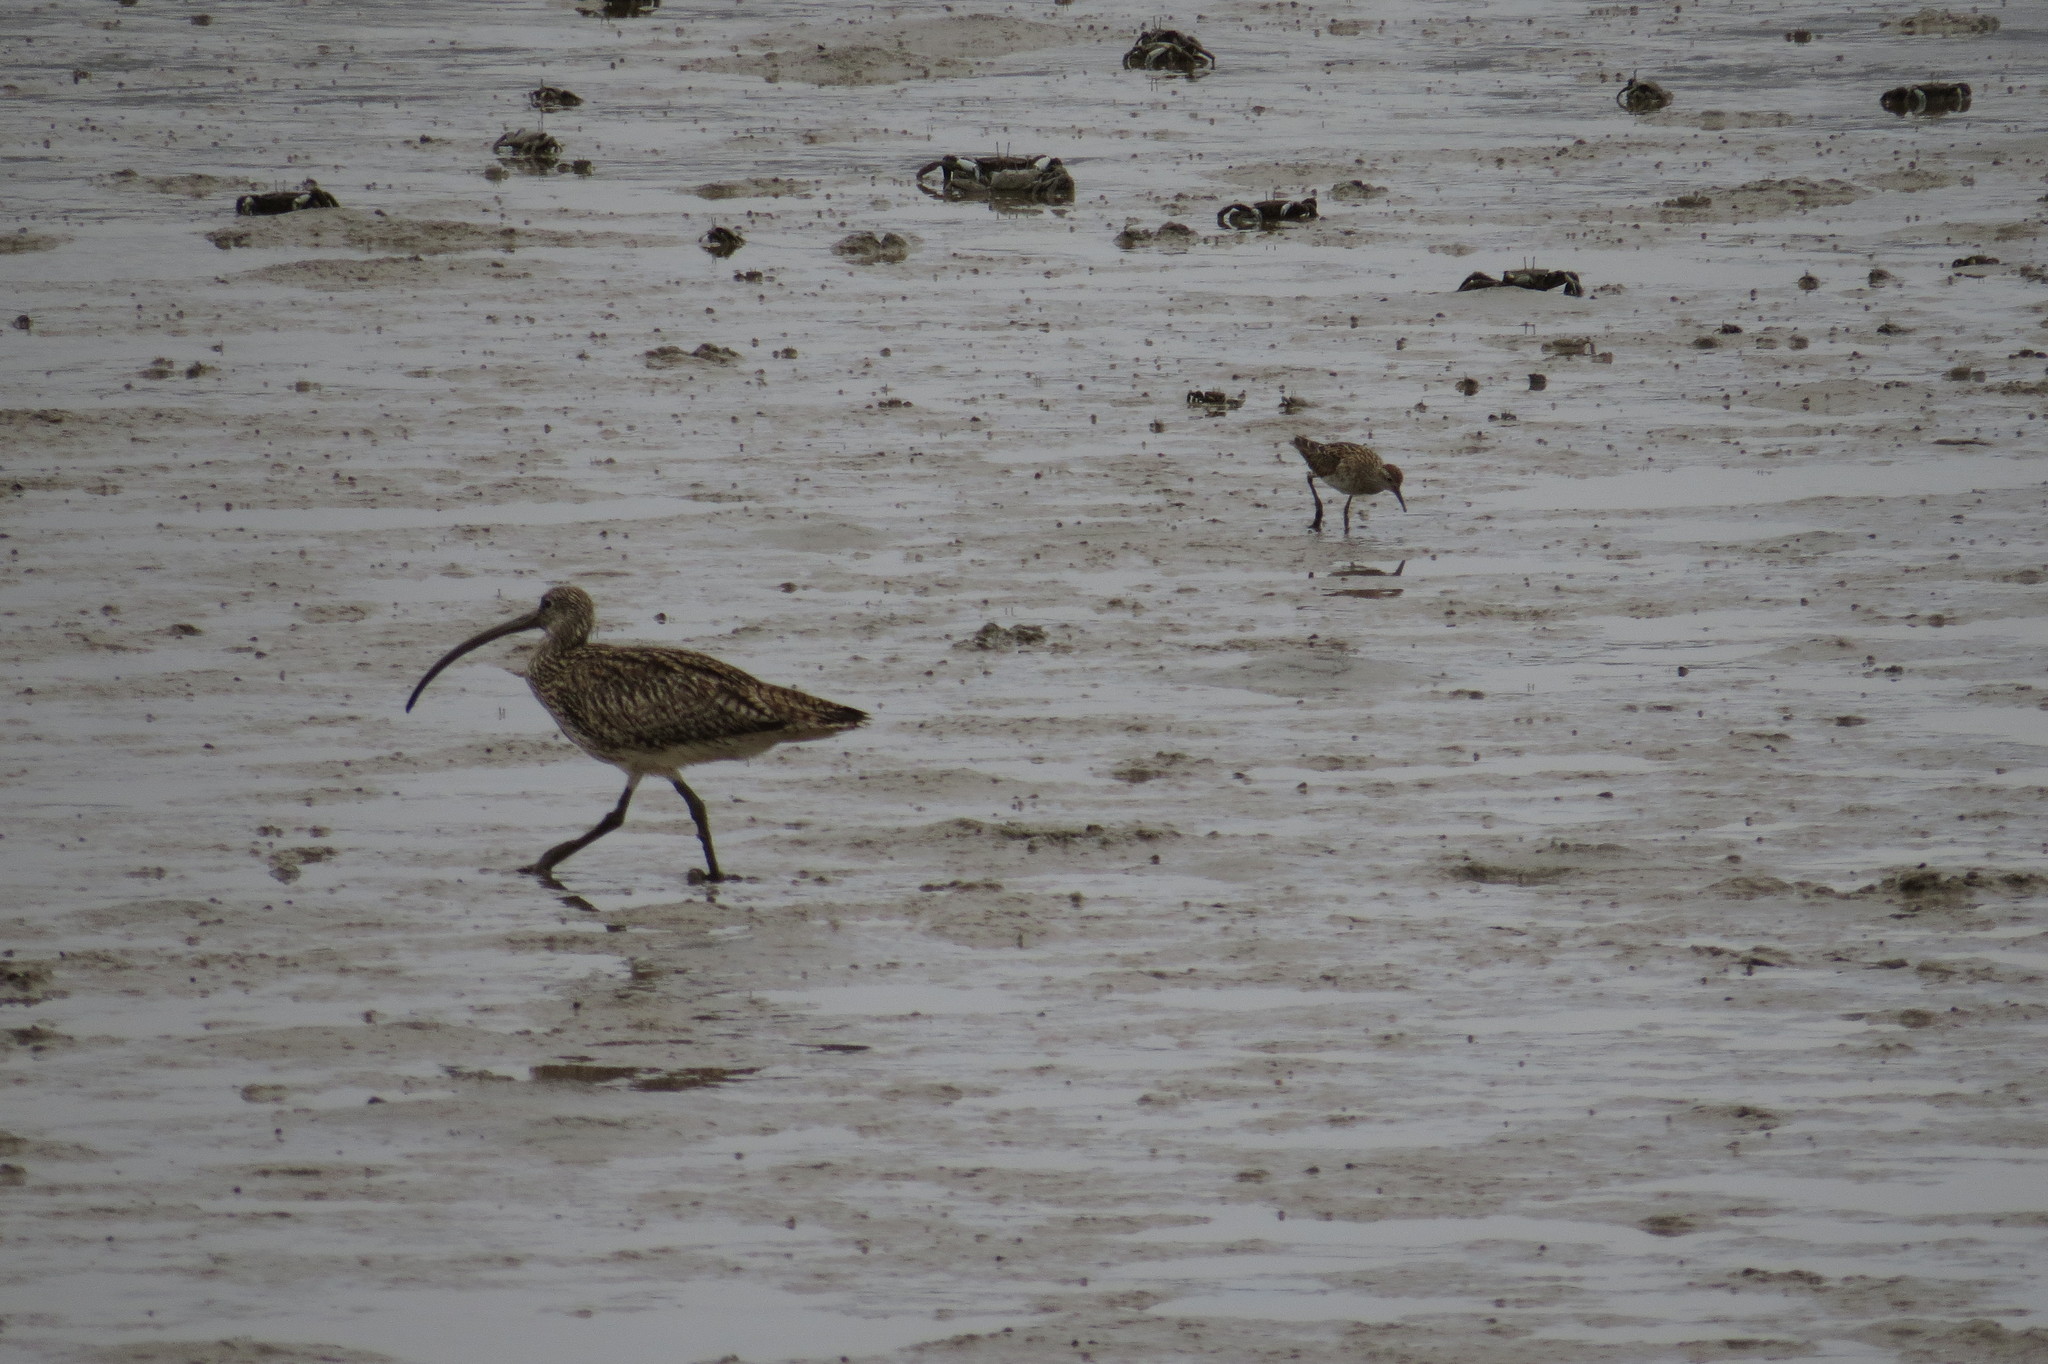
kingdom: Animalia
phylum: Chordata
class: Aves
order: Charadriiformes
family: Scolopacidae
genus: Numenius
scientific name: Numenius madagascariensis
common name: Far eastern curlew
